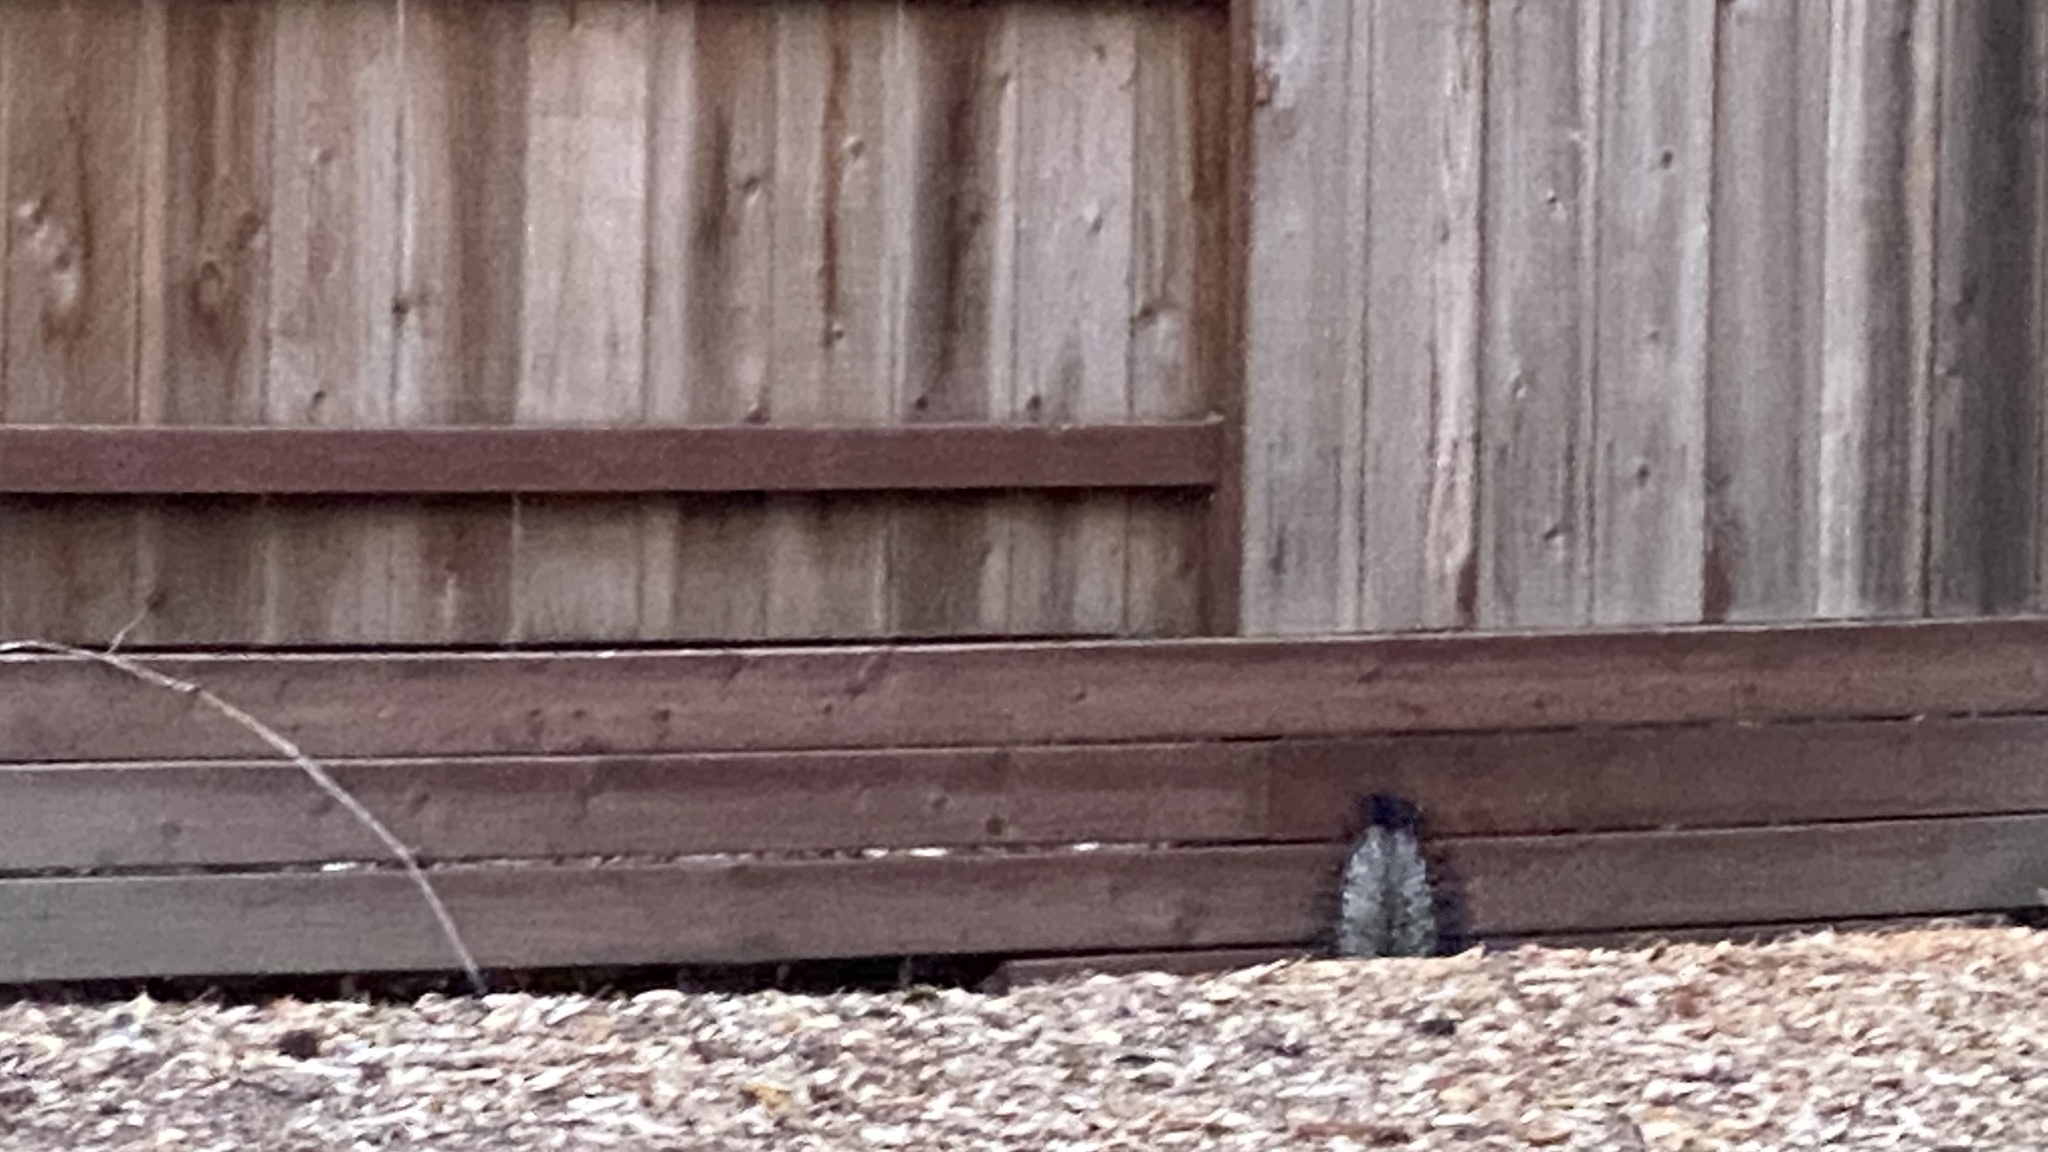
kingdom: Animalia
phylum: Chordata
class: Mammalia
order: Carnivora
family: Mephitidae
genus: Mephitis
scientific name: Mephitis mephitis
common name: Striped skunk
